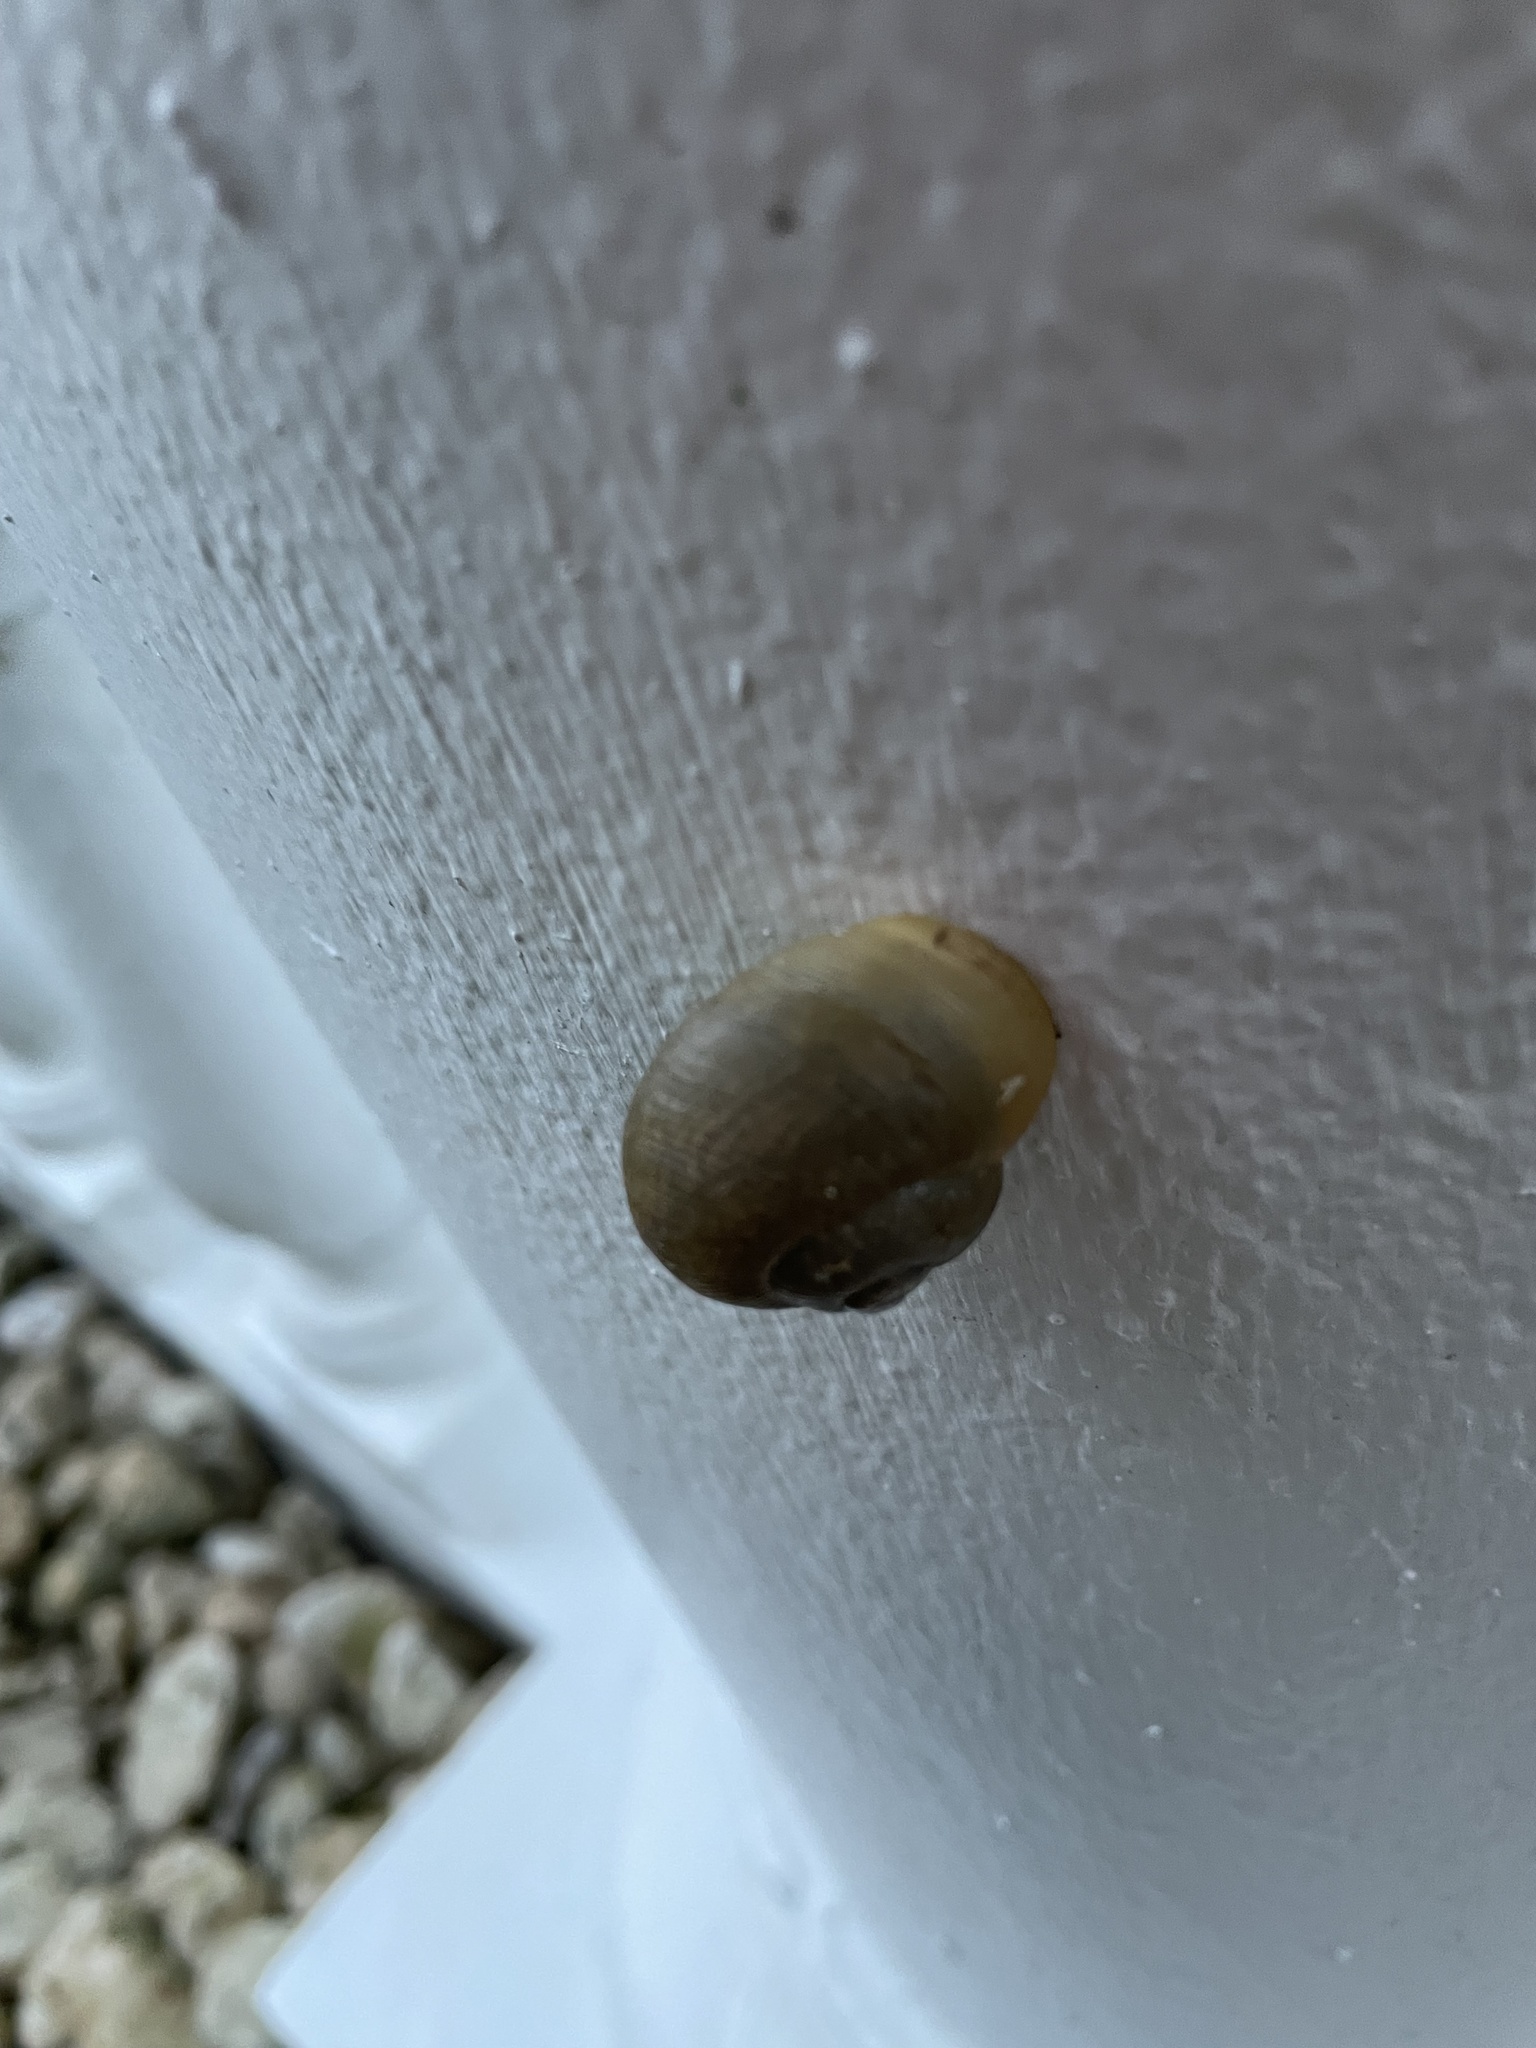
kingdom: Animalia
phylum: Mollusca
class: Gastropoda
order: Stylommatophora
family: Zachrysiidae
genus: Zachrysia
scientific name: Zachrysia provisoria
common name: Garden zachrysia
